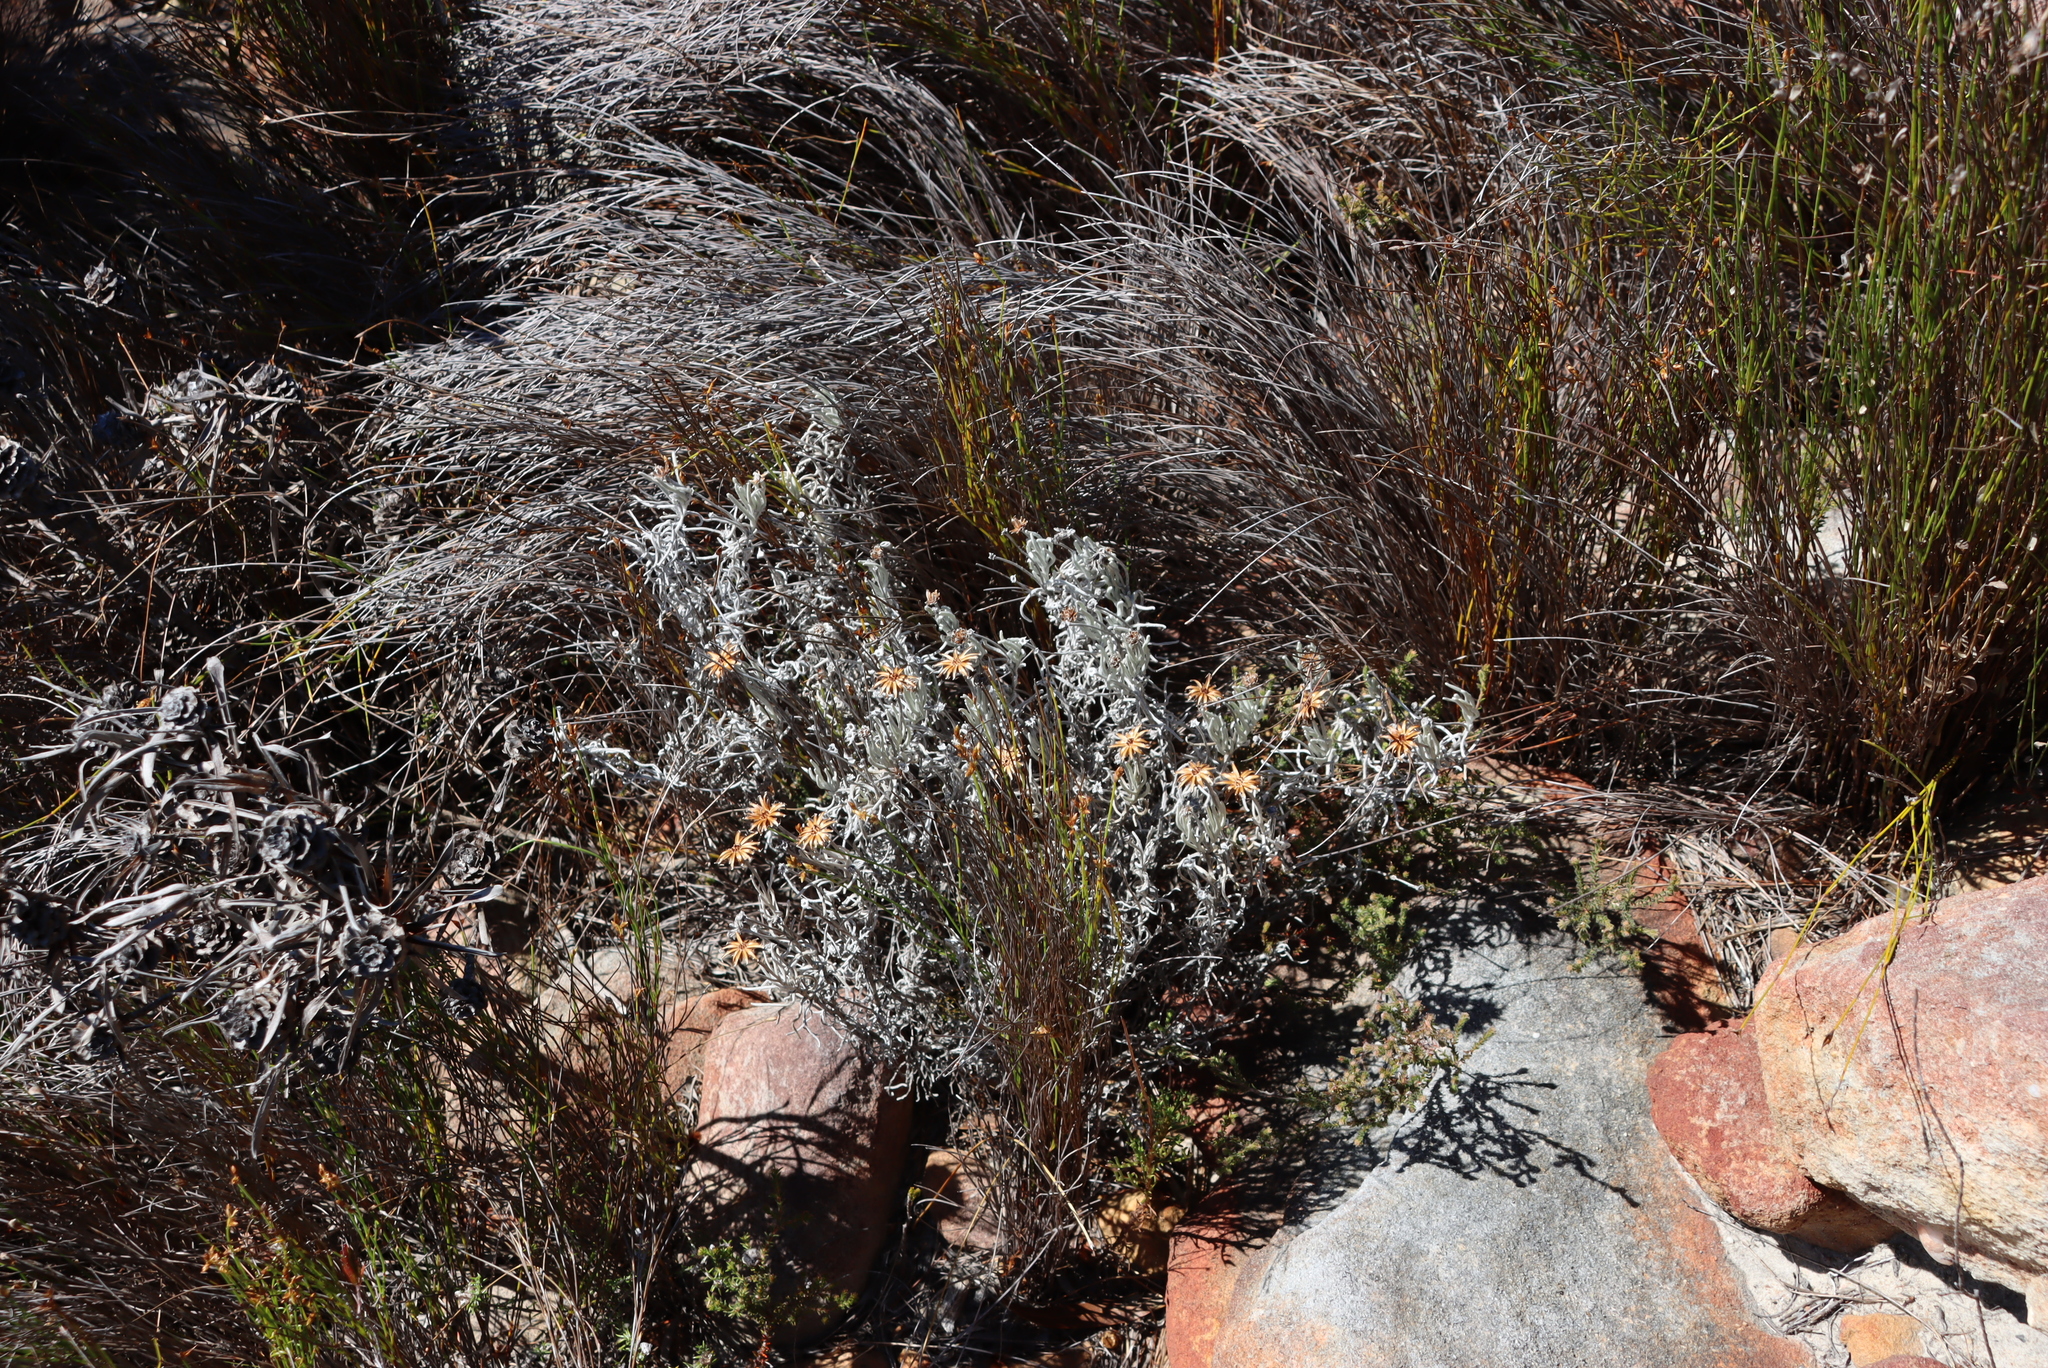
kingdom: Plantae
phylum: Tracheophyta
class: Magnoliopsida
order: Asterales
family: Asteraceae
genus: Syncarpha
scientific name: Syncarpha gnaphaloides
